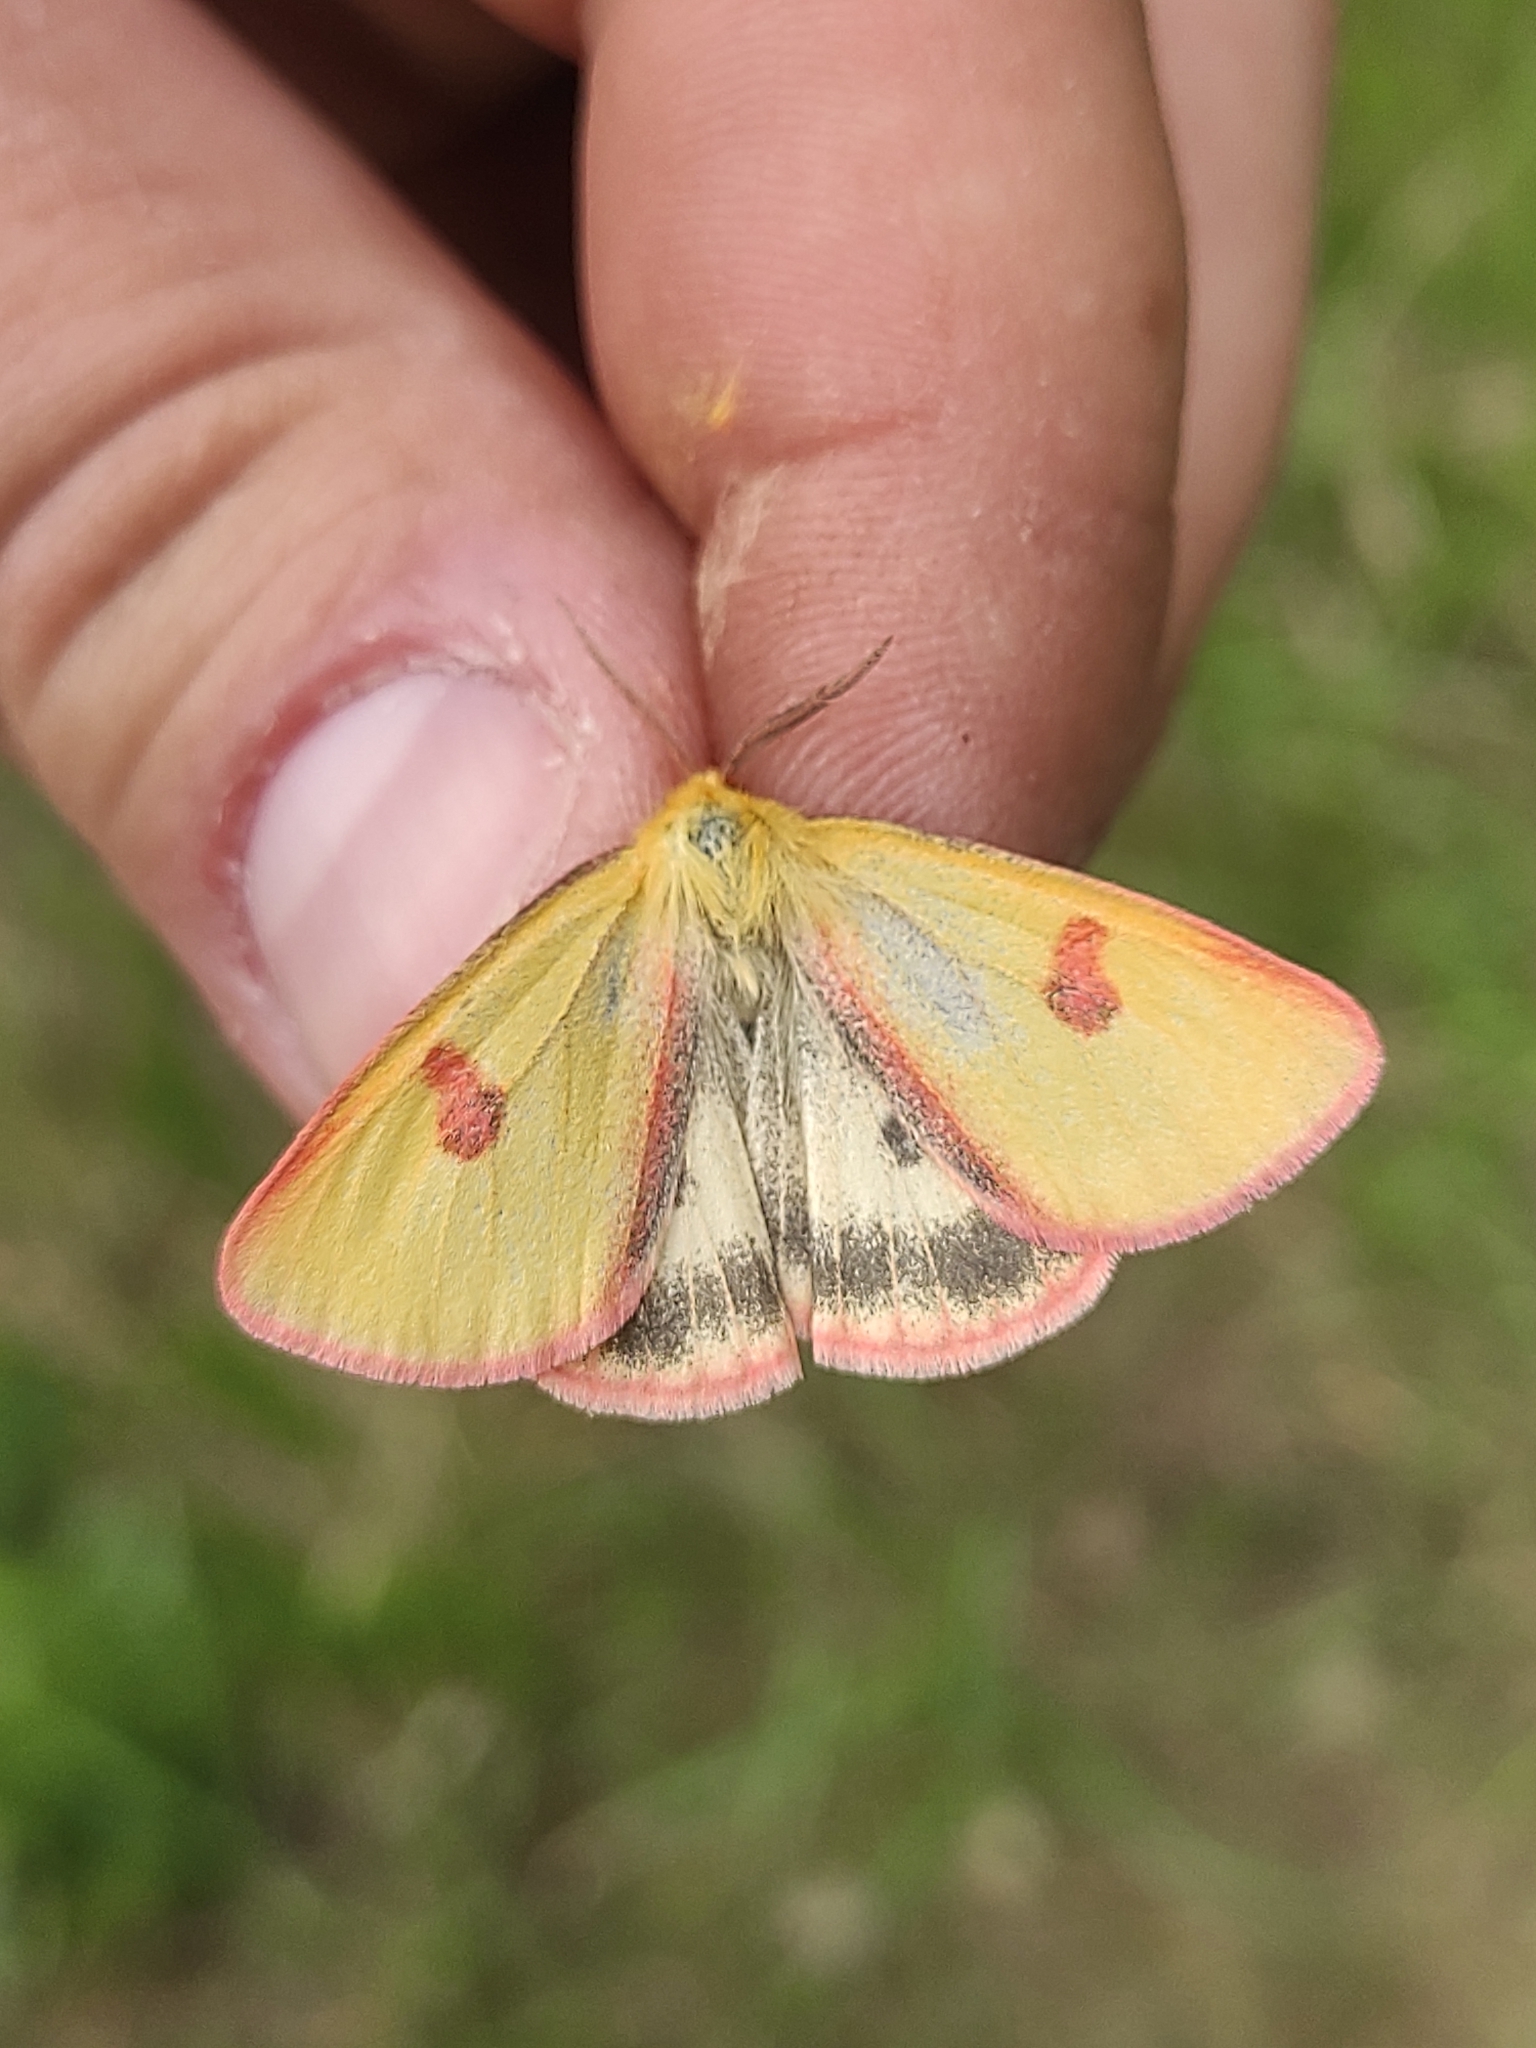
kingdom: Animalia
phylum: Arthropoda
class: Insecta
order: Lepidoptera
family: Erebidae
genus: Diacrisia
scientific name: Diacrisia sannio
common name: Clouded buff
